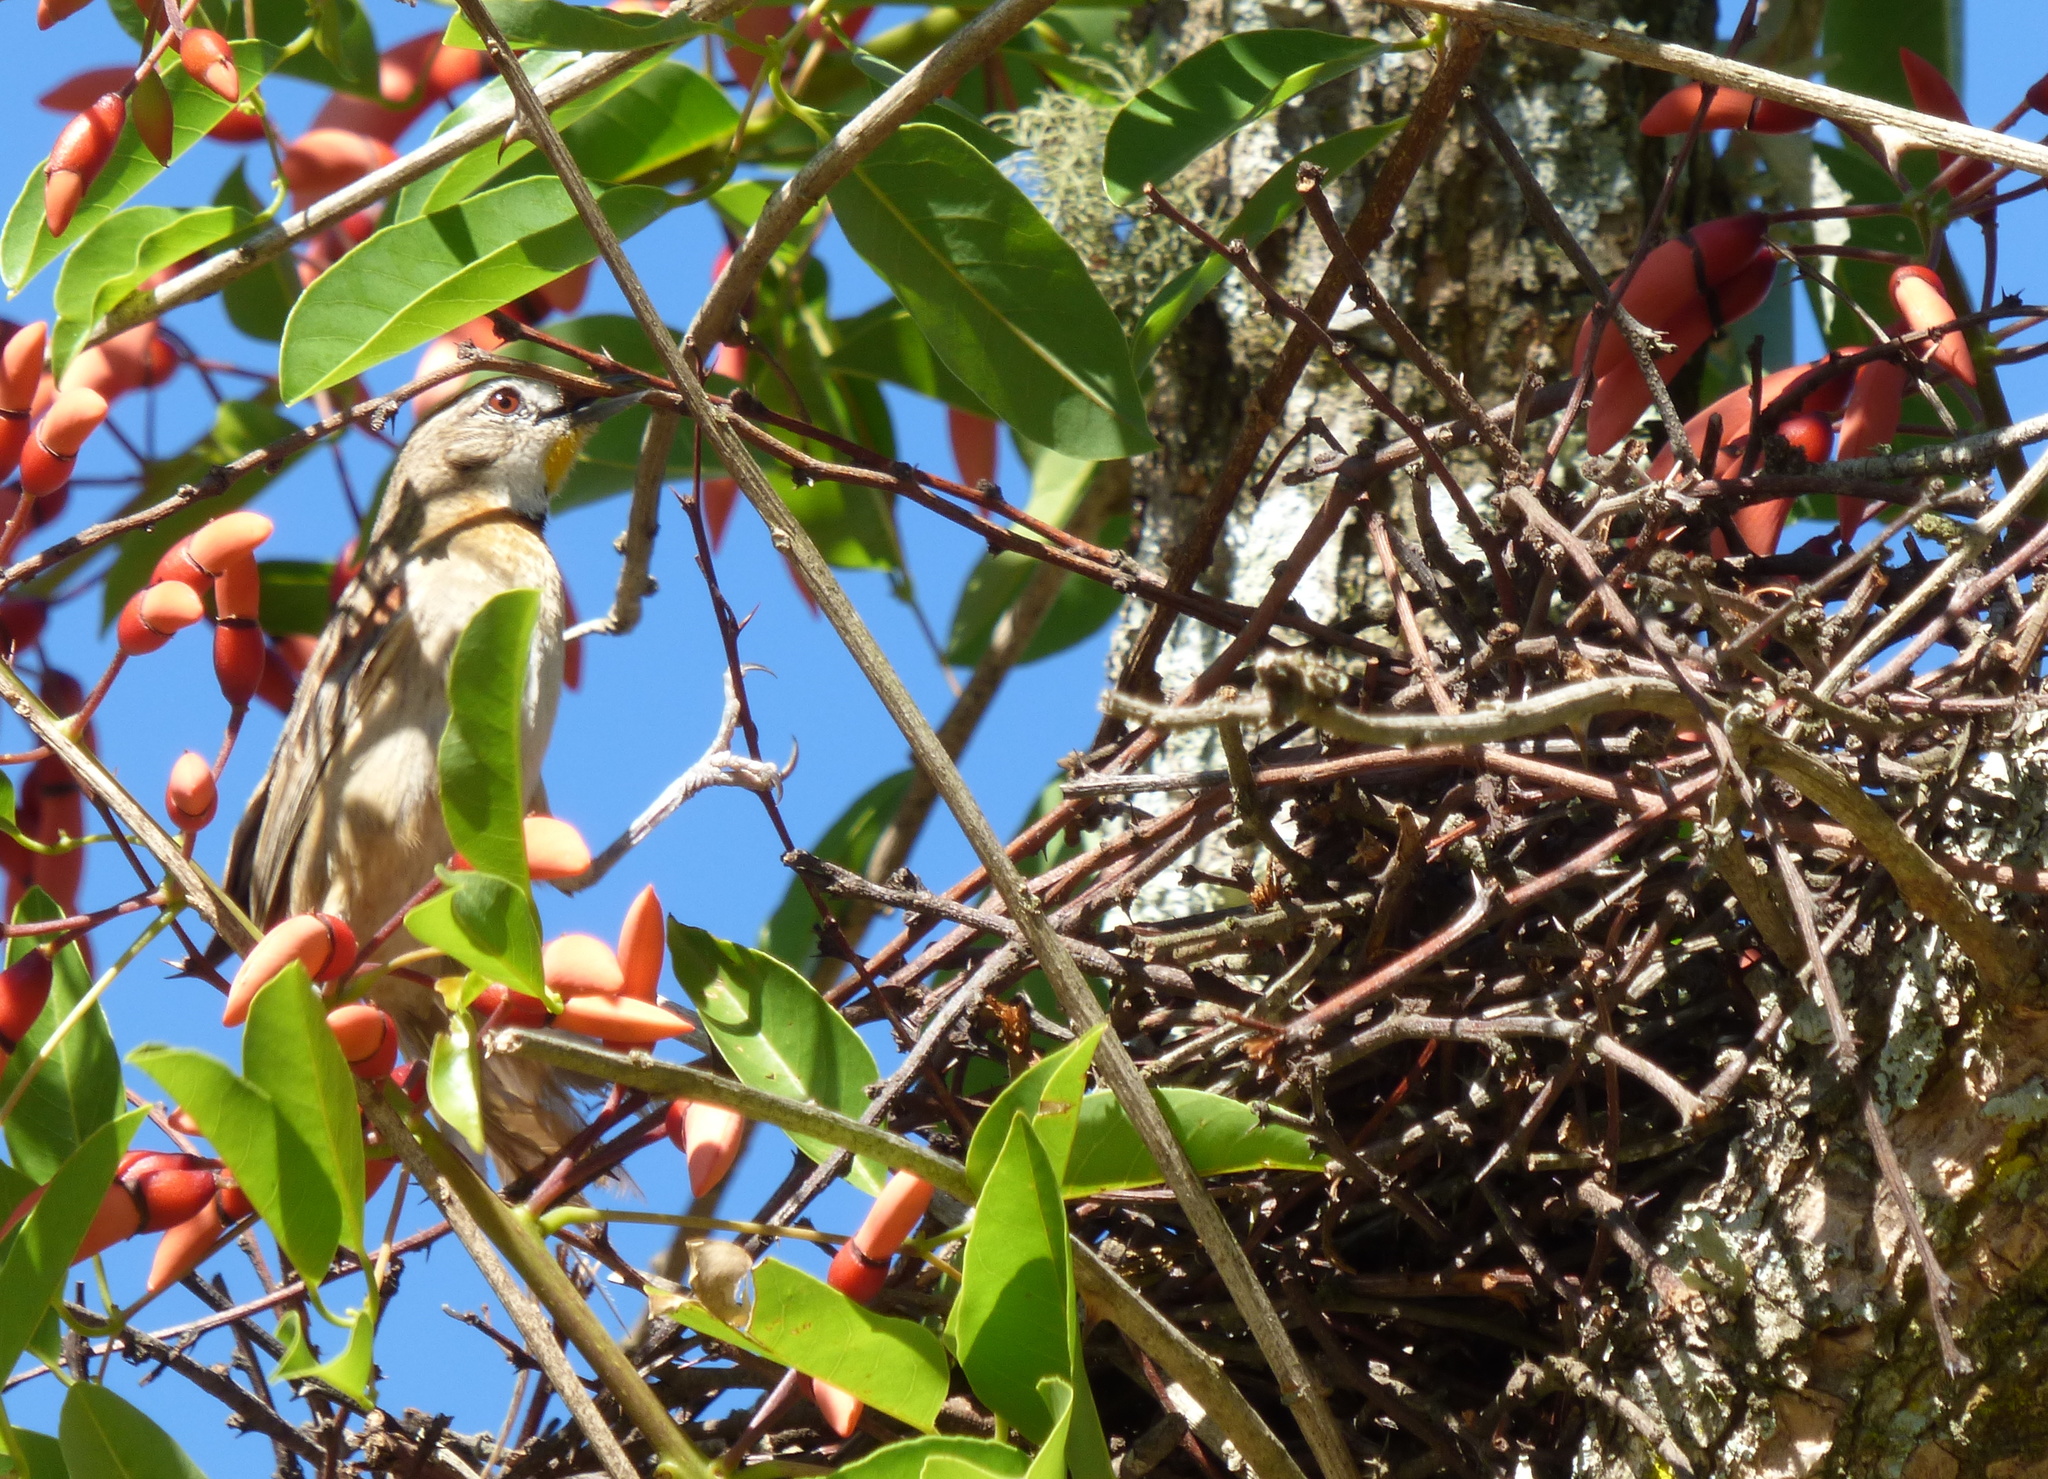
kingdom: Animalia
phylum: Chordata
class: Aves
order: Passeriformes
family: Furnariidae
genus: Schoeniophylax
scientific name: Schoeniophylax phryganophilus
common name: Chotoy spinetail
